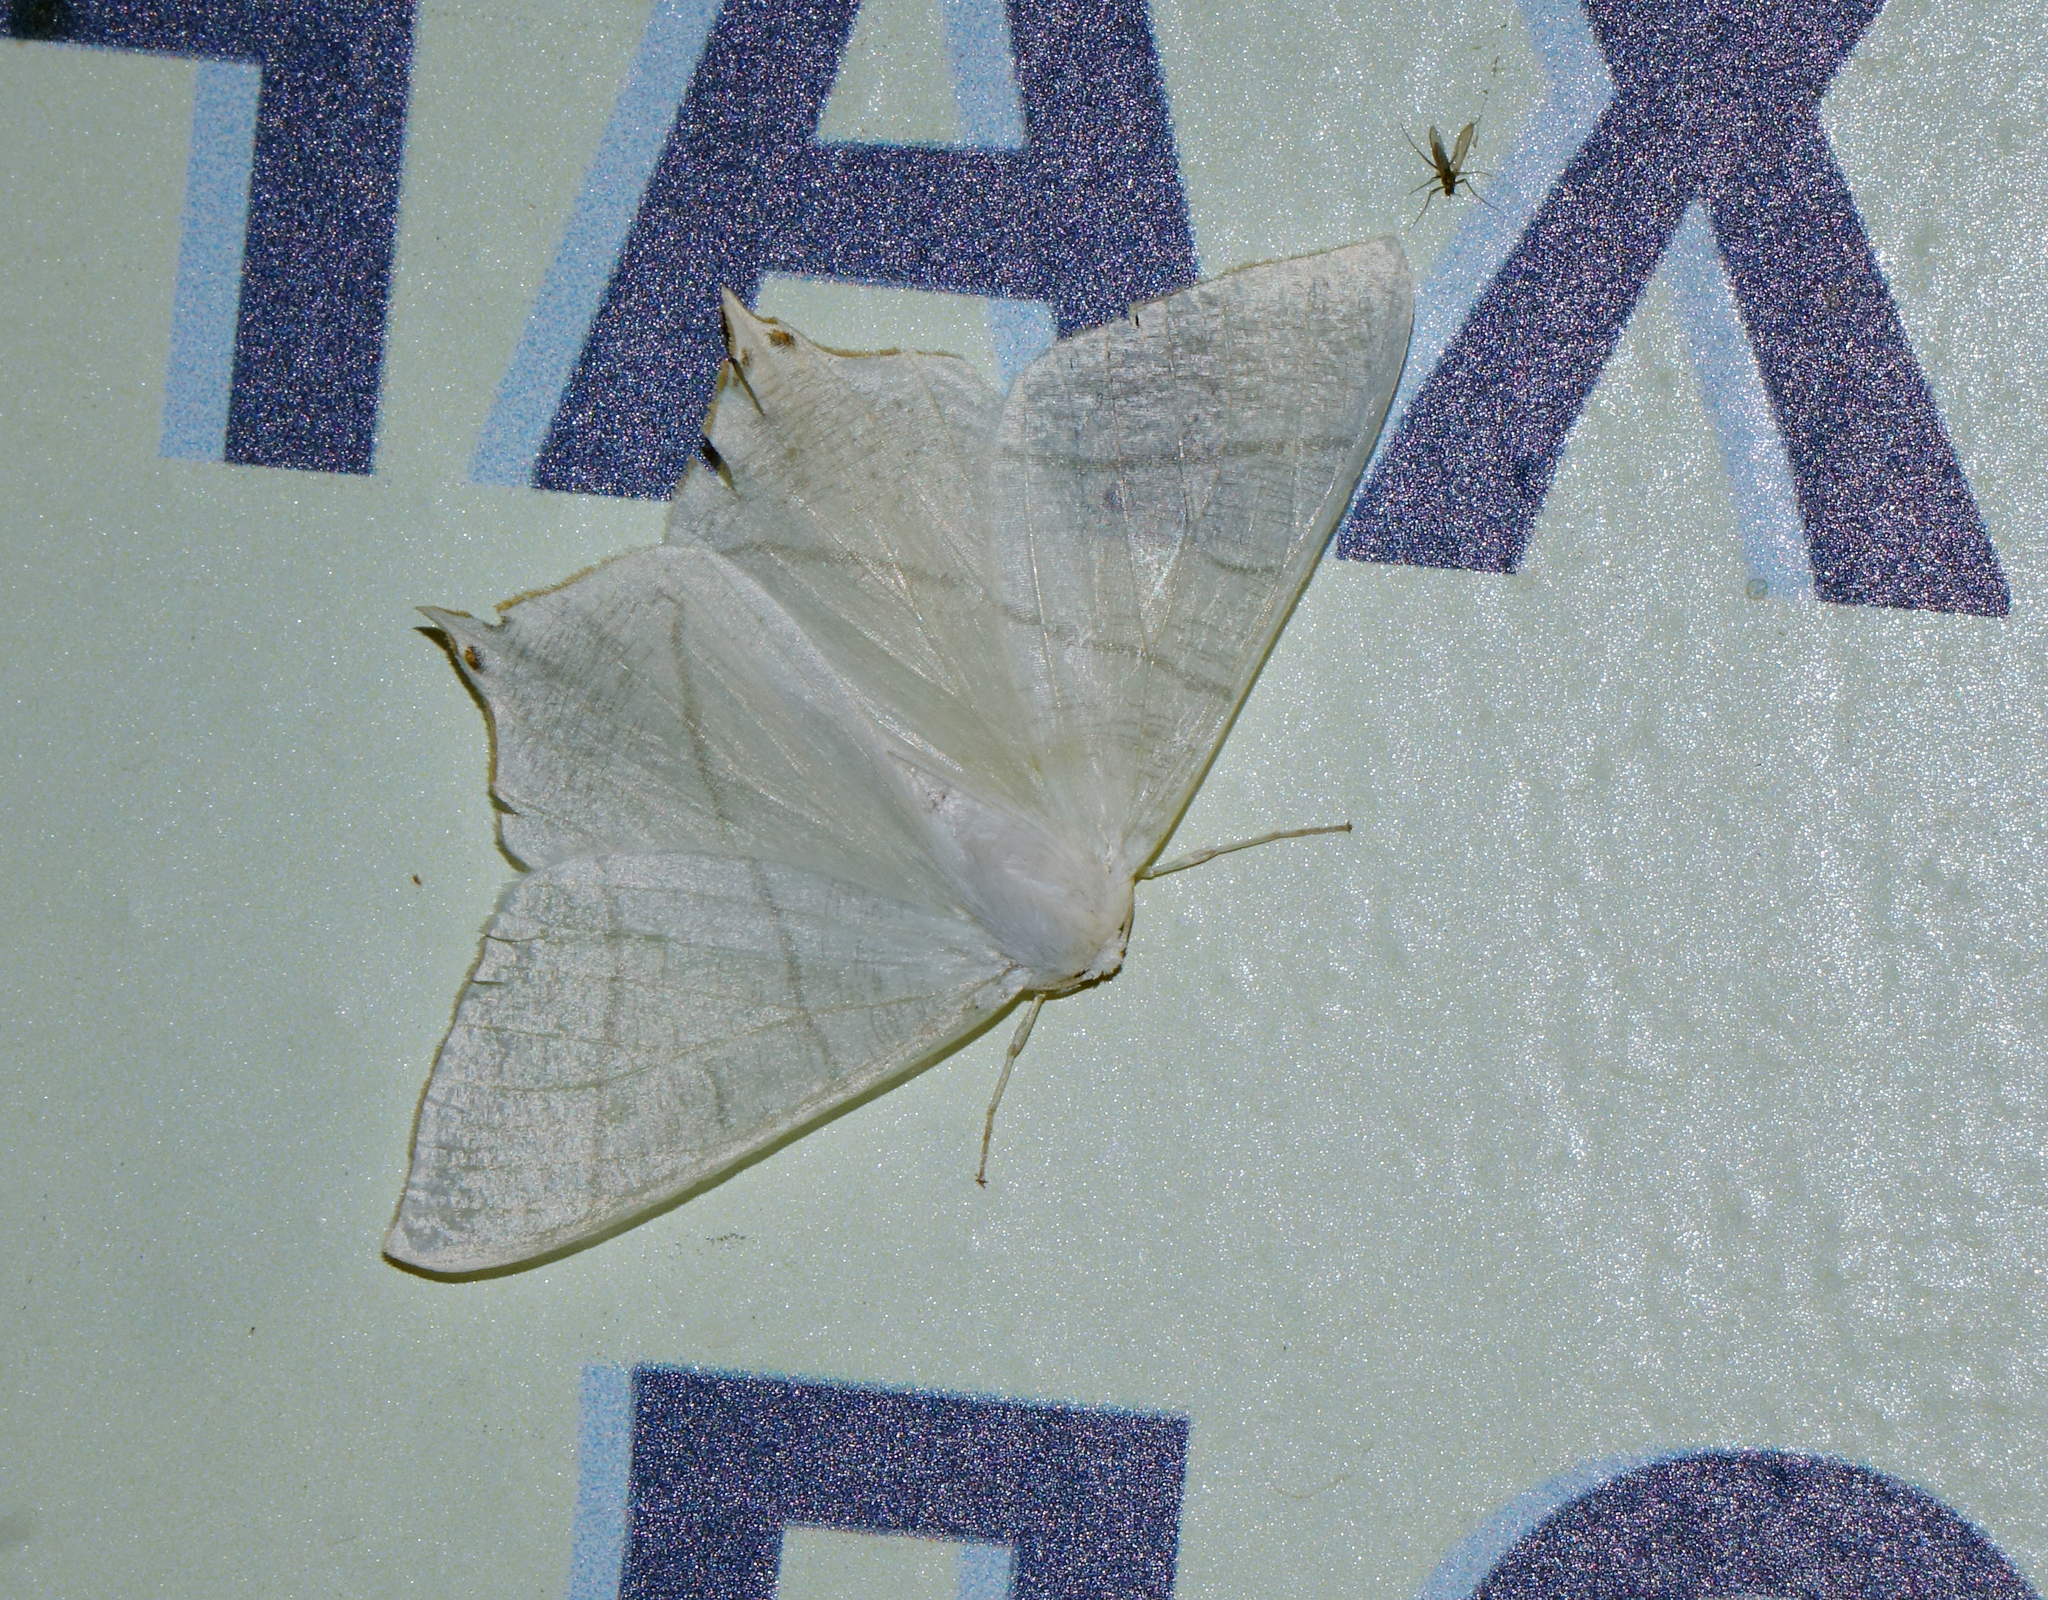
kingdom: Animalia
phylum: Arthropoda
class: Insecta
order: Lepidoptera
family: Geometridae
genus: Ourapteryx
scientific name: Ourapteryx
